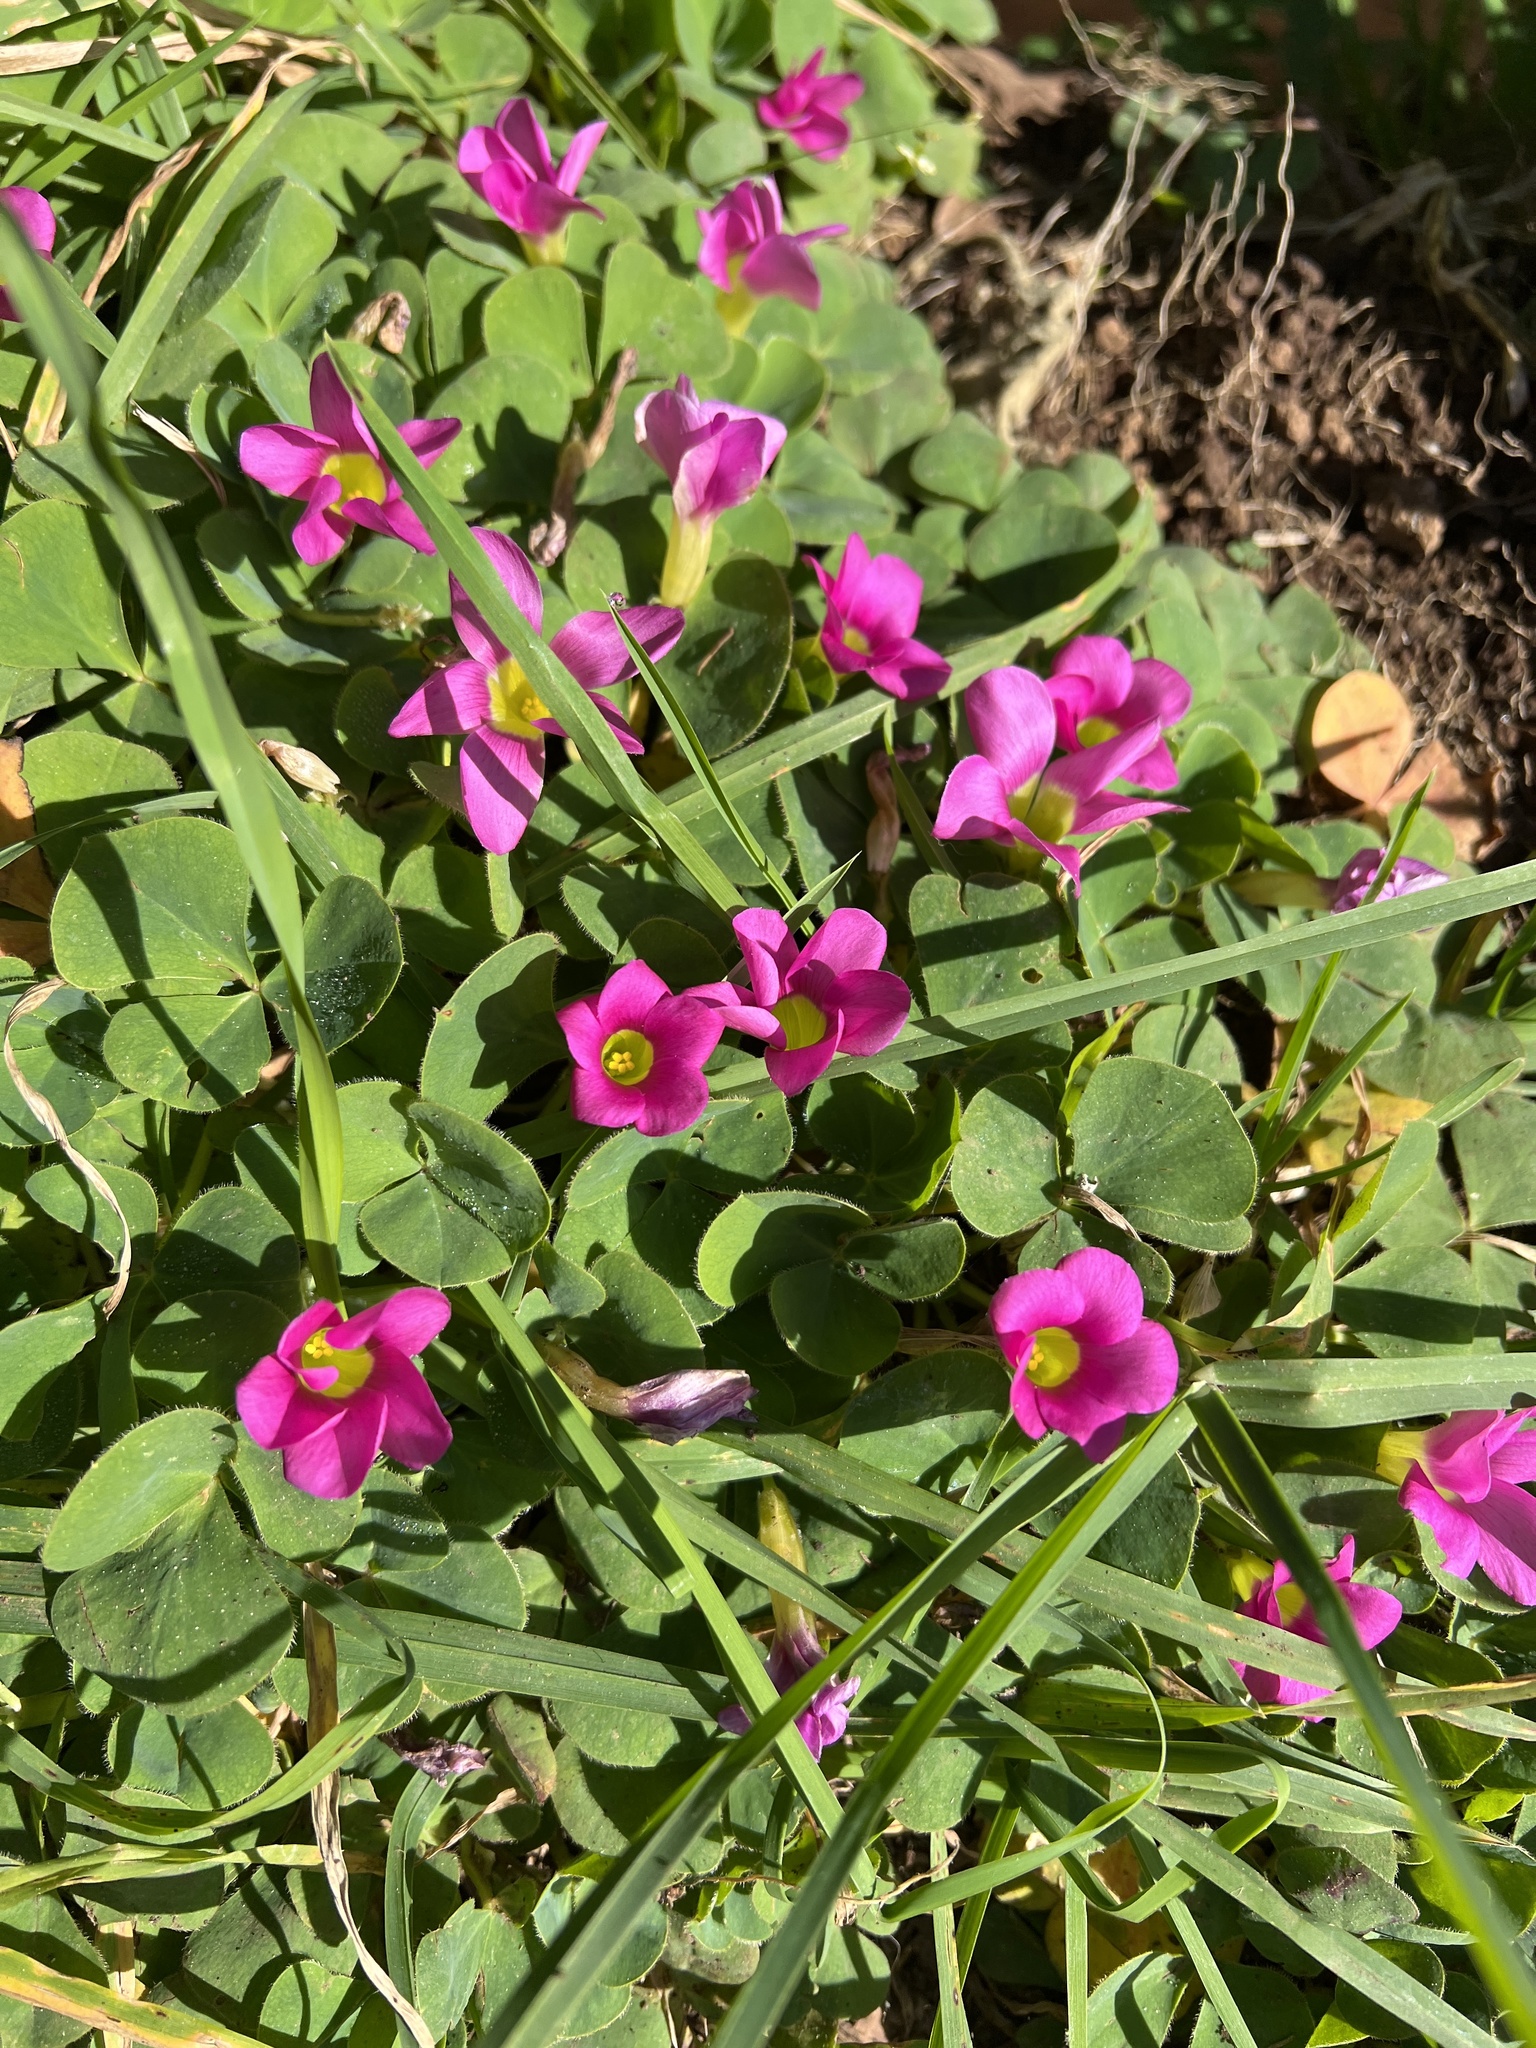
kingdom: Plantae
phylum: Tracheophyta
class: Magnoliopsida
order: Oxalidales
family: Oxalidaceae
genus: Oxalis
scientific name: Oxalis purpurea
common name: Purple woodsorrel
